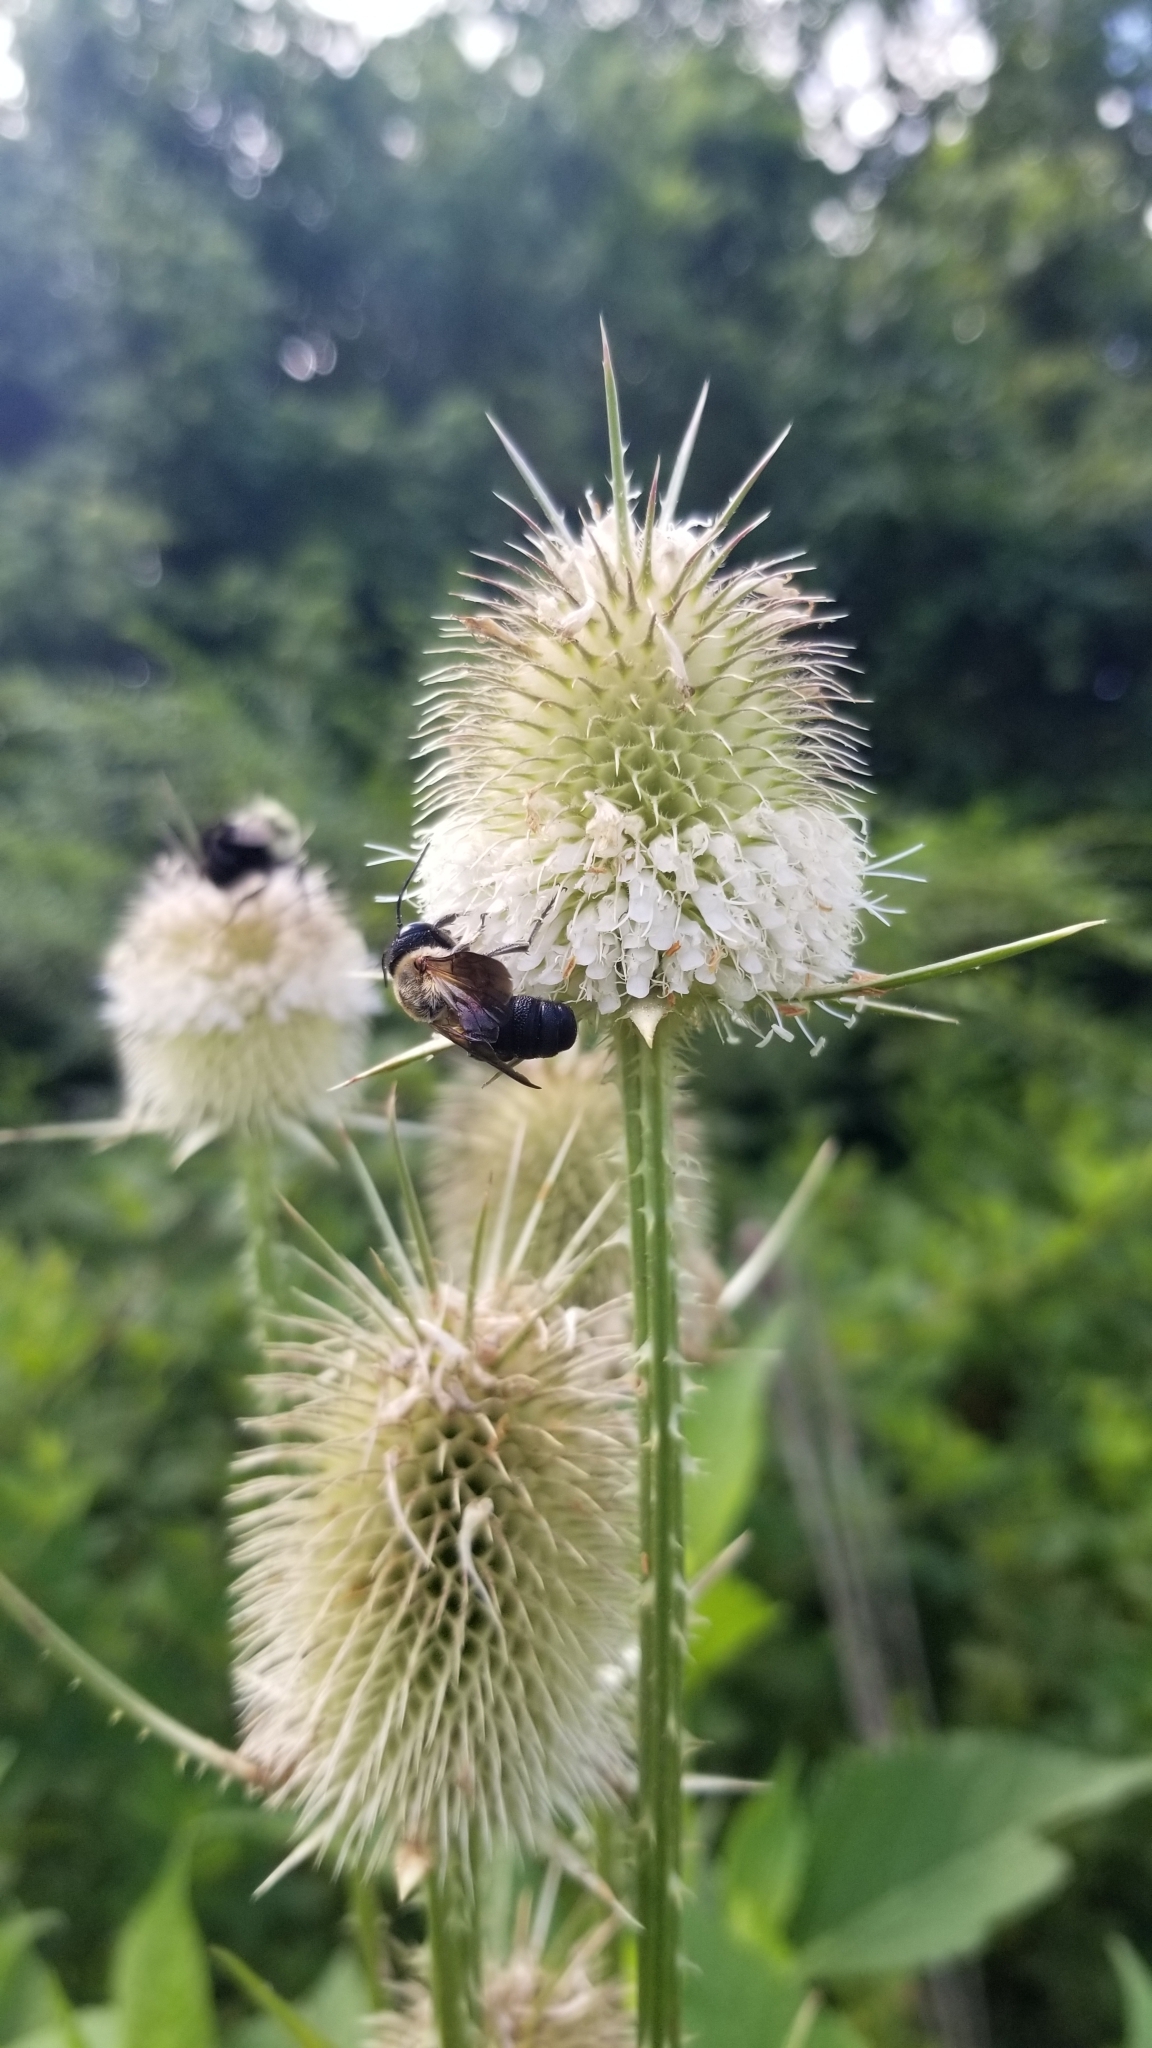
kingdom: Animalia
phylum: Arthropoda
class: Insecta
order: Hymenoptera
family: Megachilidae
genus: Megachile
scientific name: Megachile sculpturalis
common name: Sculptured resin bee
